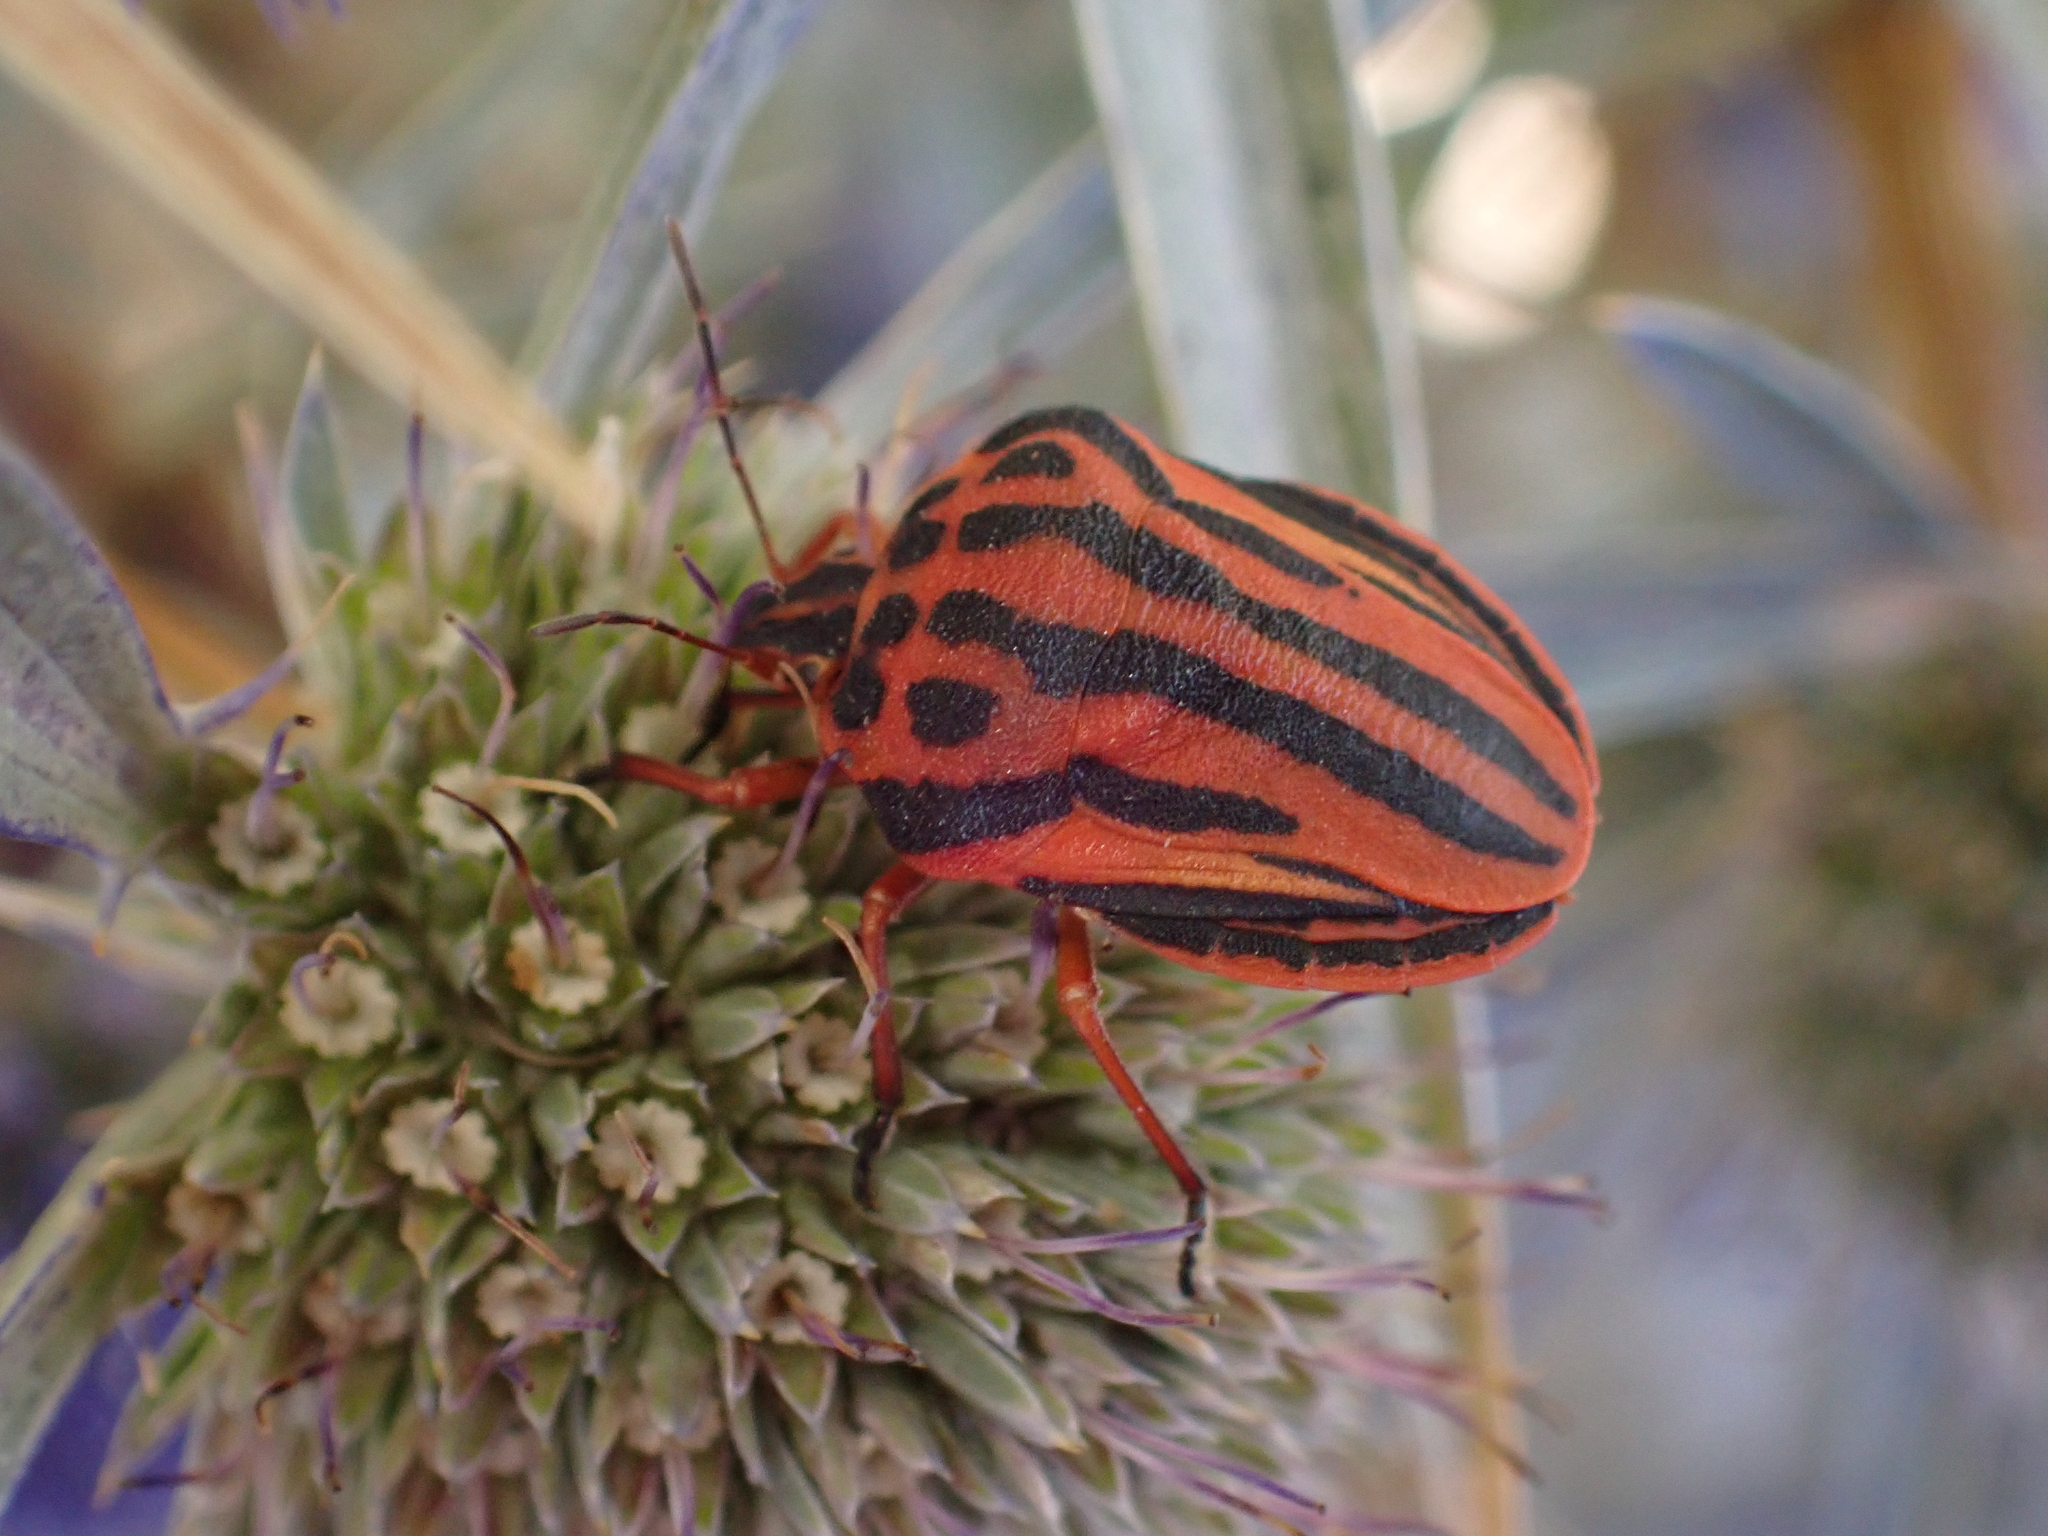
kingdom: Animalia
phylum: Arthropoda
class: Insecta
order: Hemiptera
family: Pentatomidae
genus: Graphosoma
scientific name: Graphosoma semipunctatum
